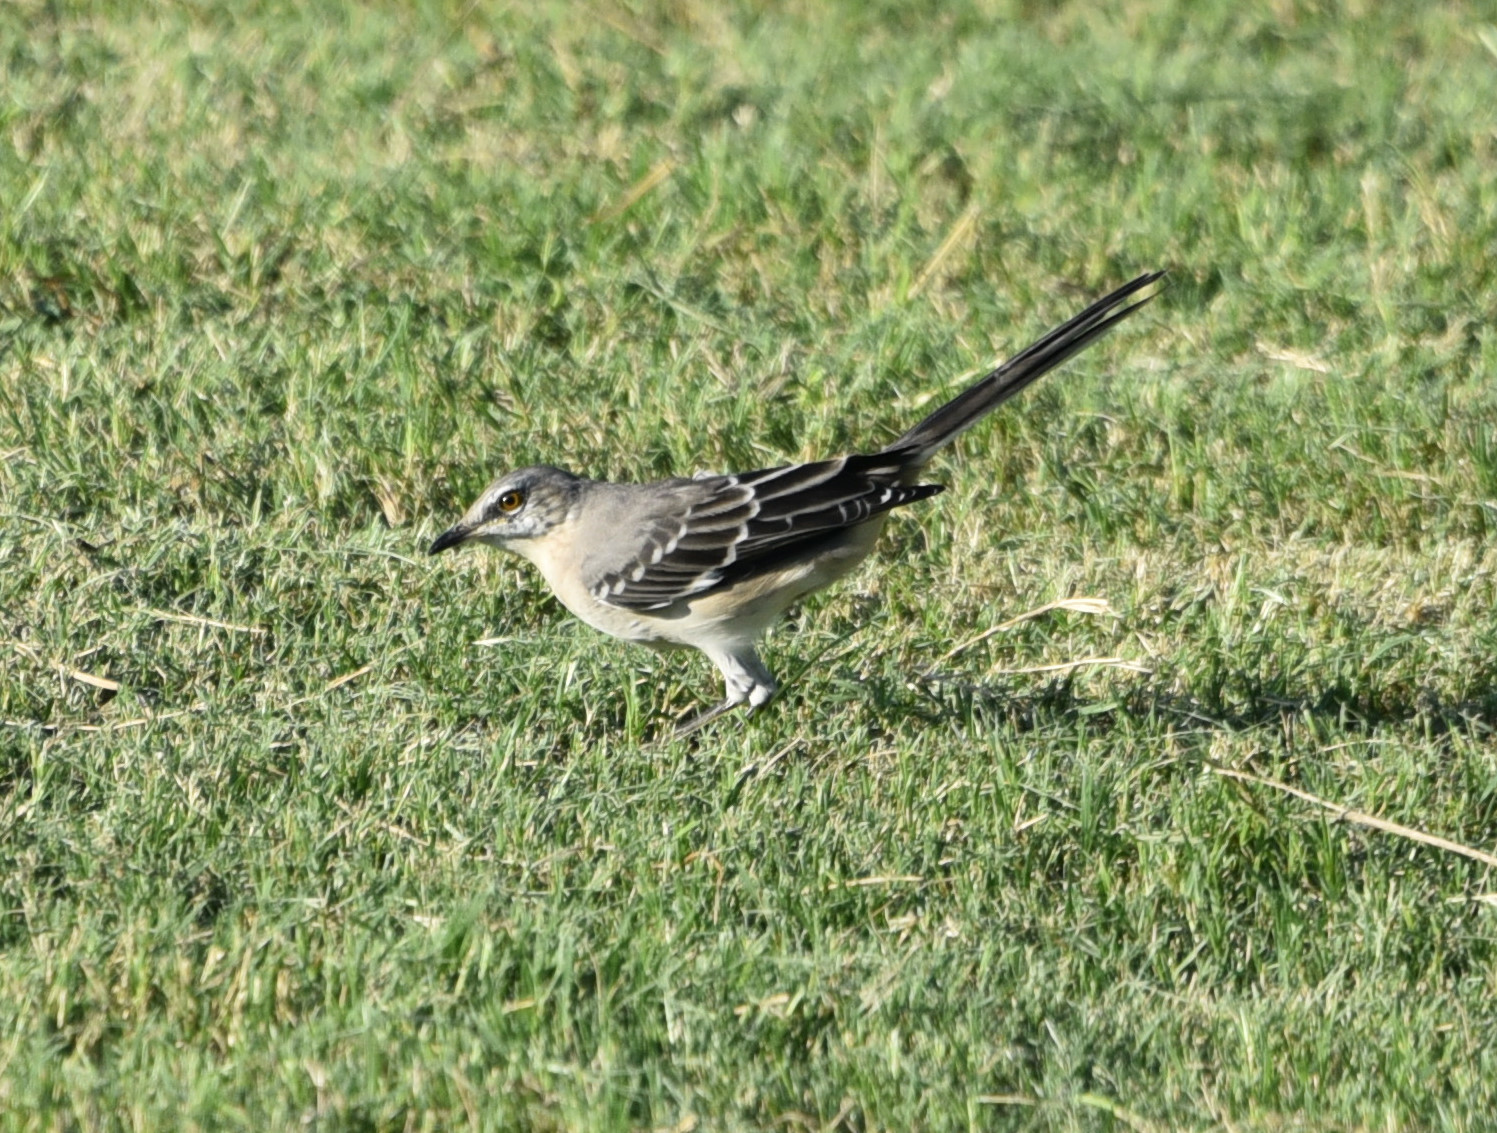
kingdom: Animalia
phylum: Chordata
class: Aves
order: Passeriformes
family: Mimidae
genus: Mimus
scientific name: Mimus polyglottos
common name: Northern mockingbird
